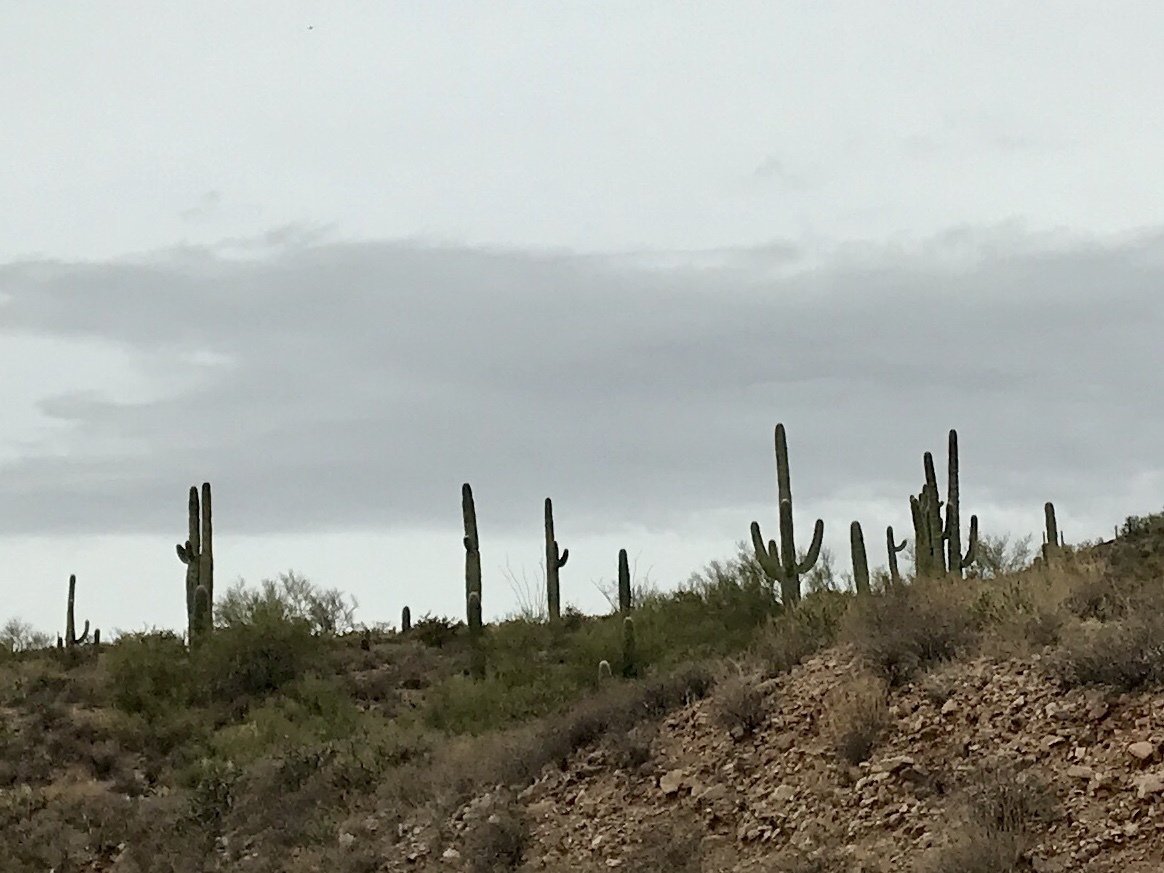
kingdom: Plantae
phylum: Tracheophyta
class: Magnoliopsida
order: Caryophyllales
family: Cactaceae
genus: Carnegiea
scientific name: Carnegiea gigantea
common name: Saguaro
